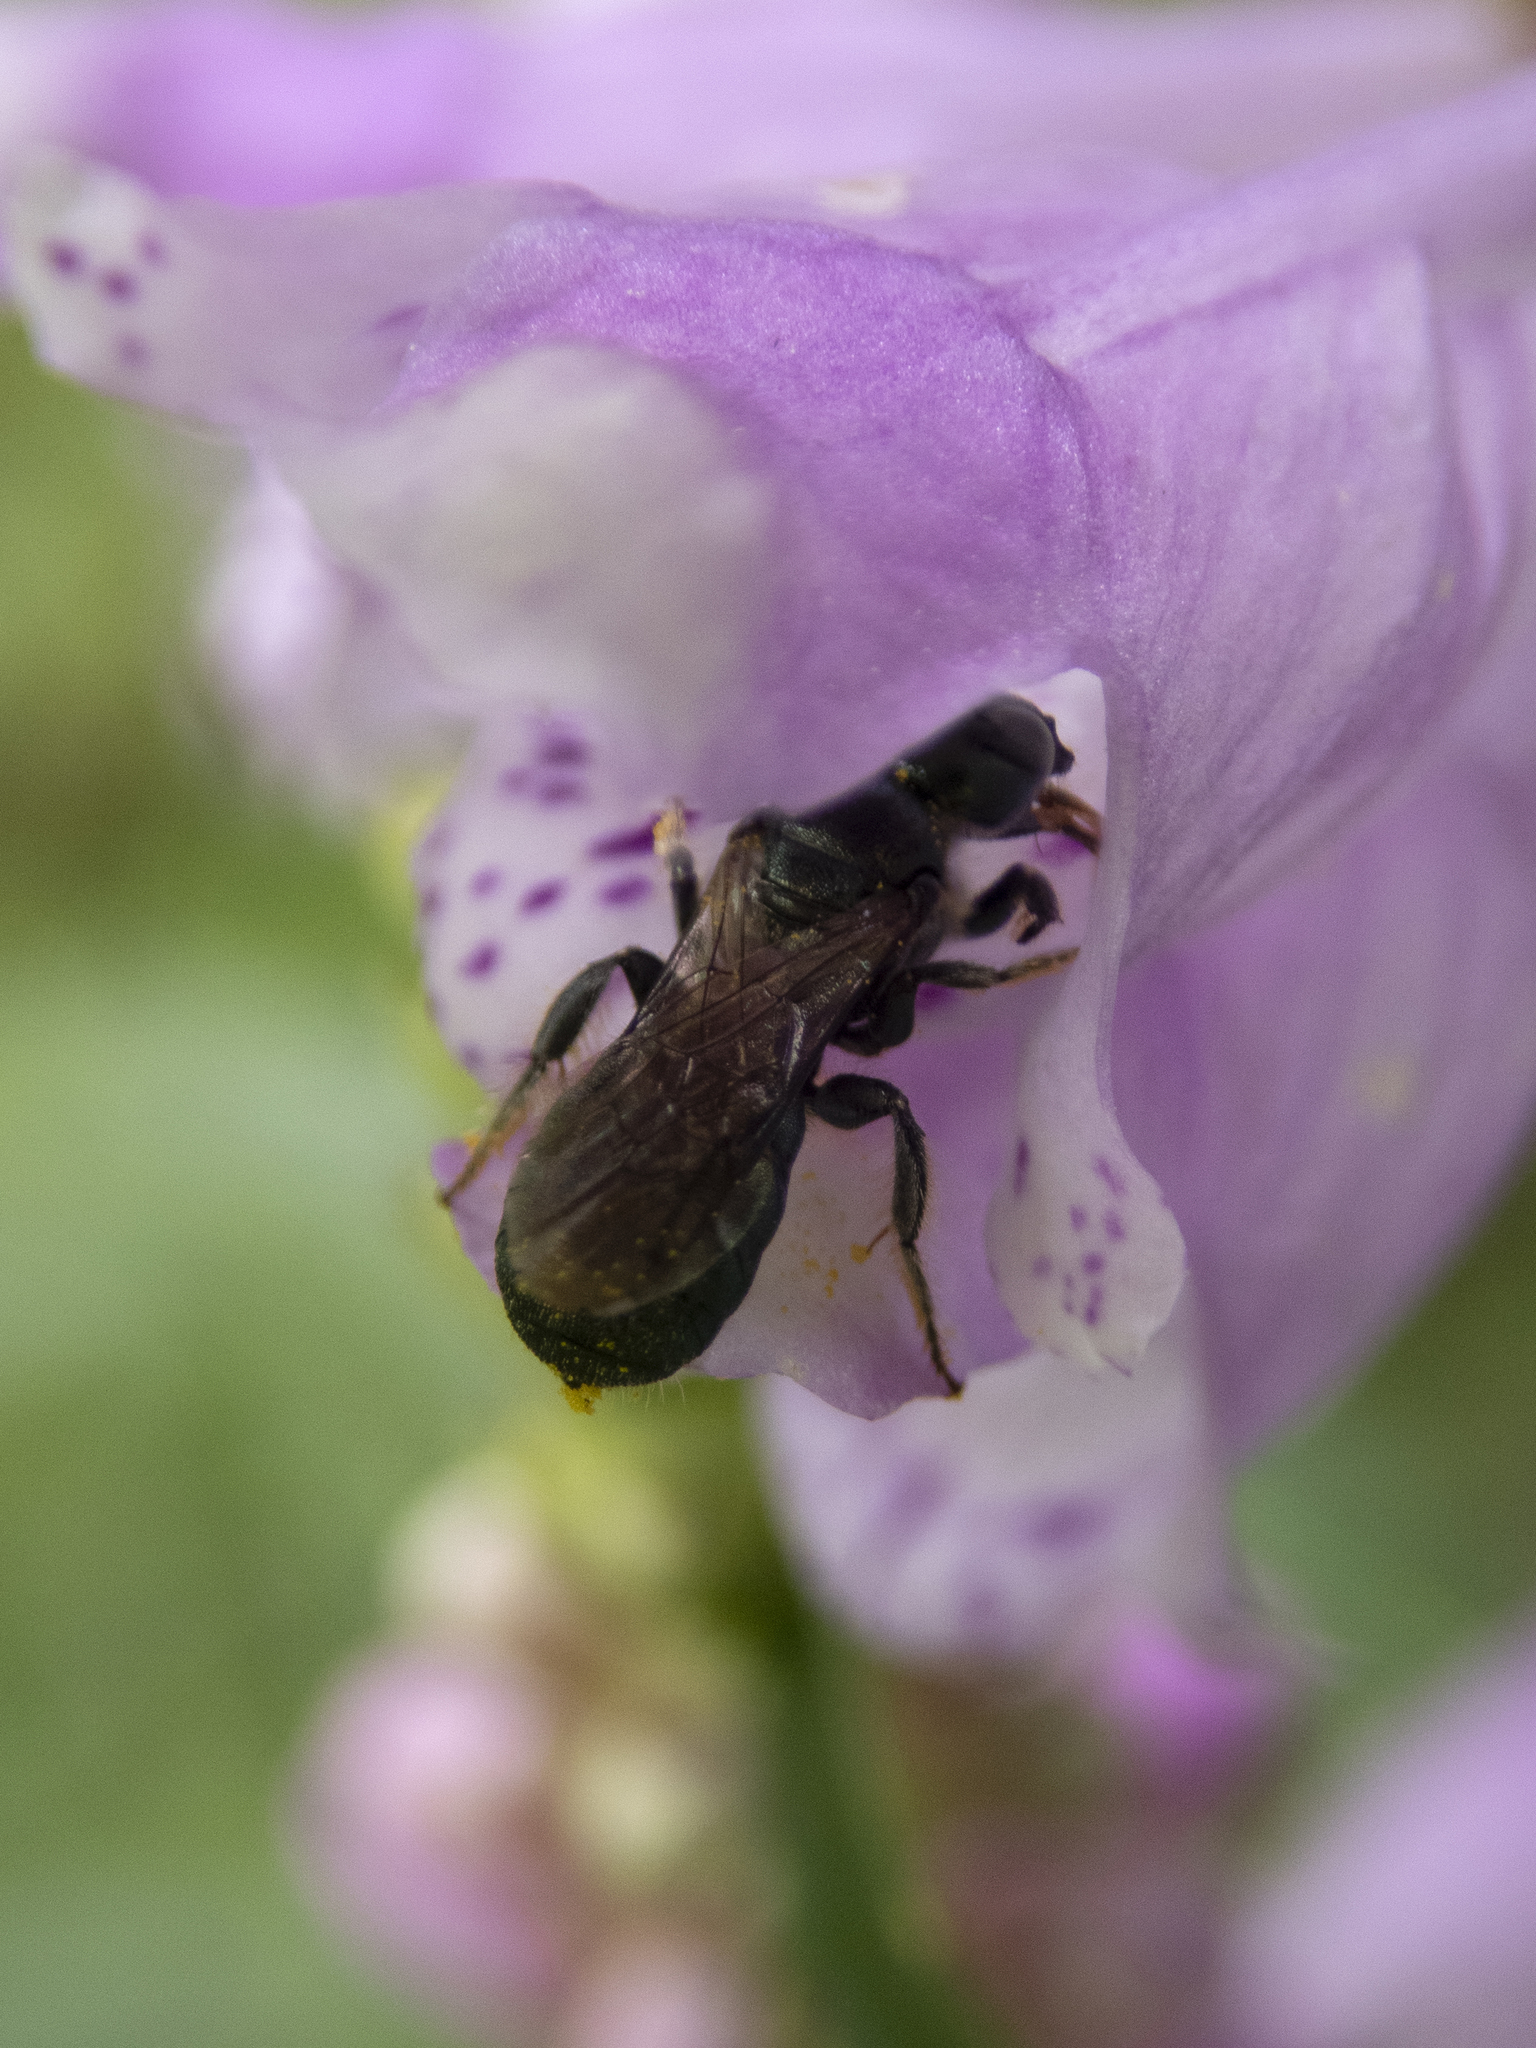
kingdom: Animalia
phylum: Arthropoda
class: Insecta
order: Hymenoptera
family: Apidae
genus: Zadontomerus
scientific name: Zadontomerus
